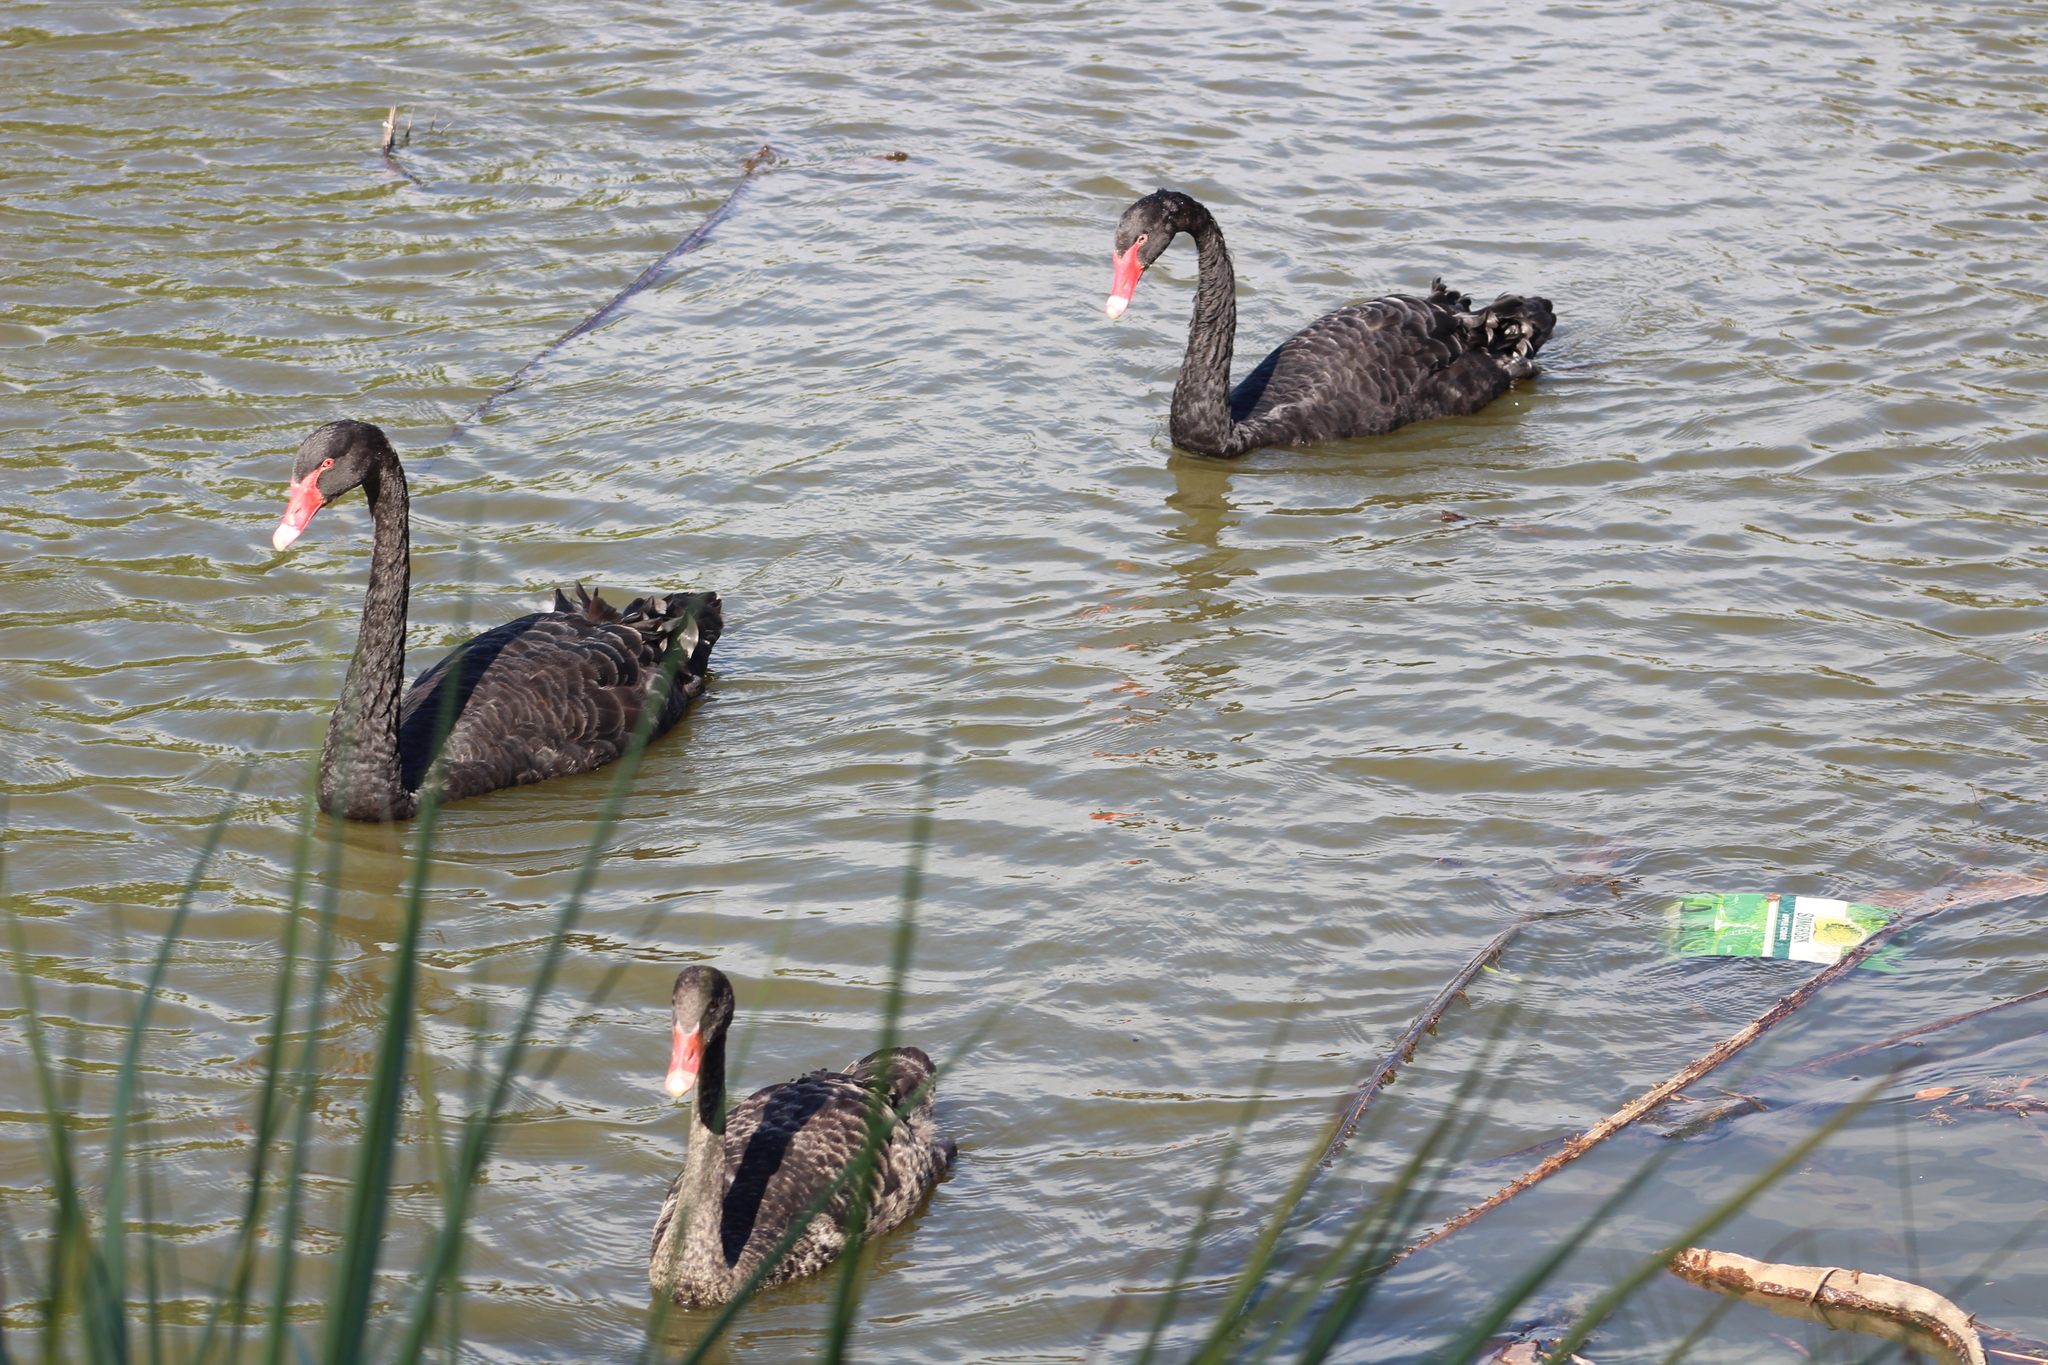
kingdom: Animalia
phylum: Chordata
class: Aves
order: Anseriformes
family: Anatidae
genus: Cygnus
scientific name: Cygnus atratus
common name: Black swan
